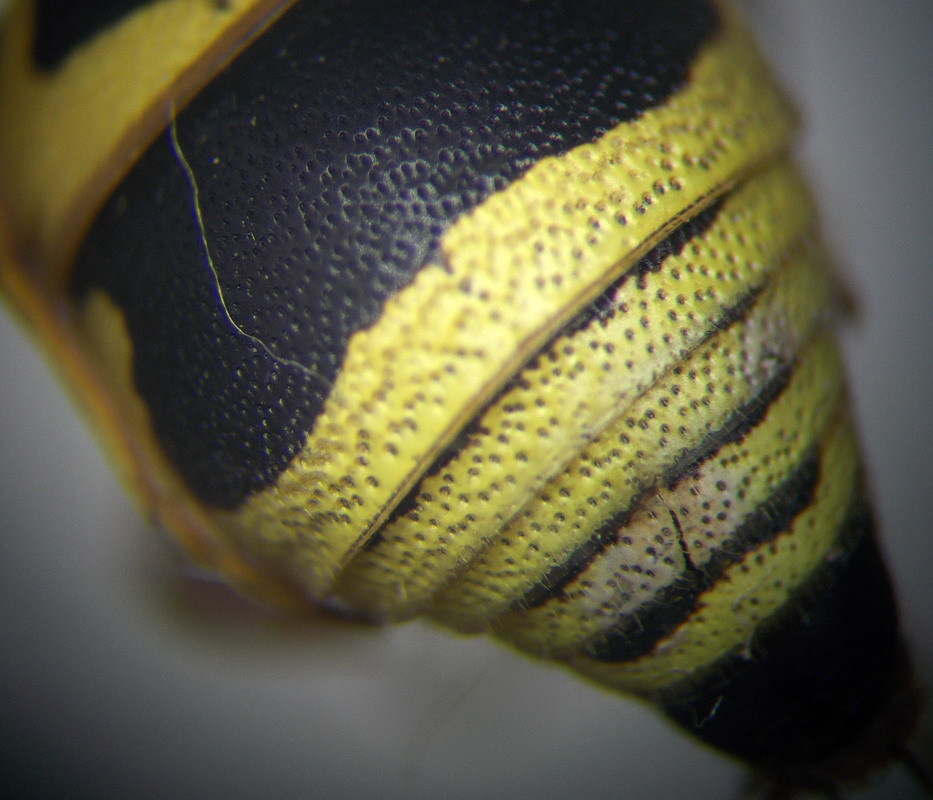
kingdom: Animalia
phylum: Arthropoda
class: Insecta
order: Hymenoptera
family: Eumenidae
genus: Euodynerus
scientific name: Euodynerus fastidiosus
